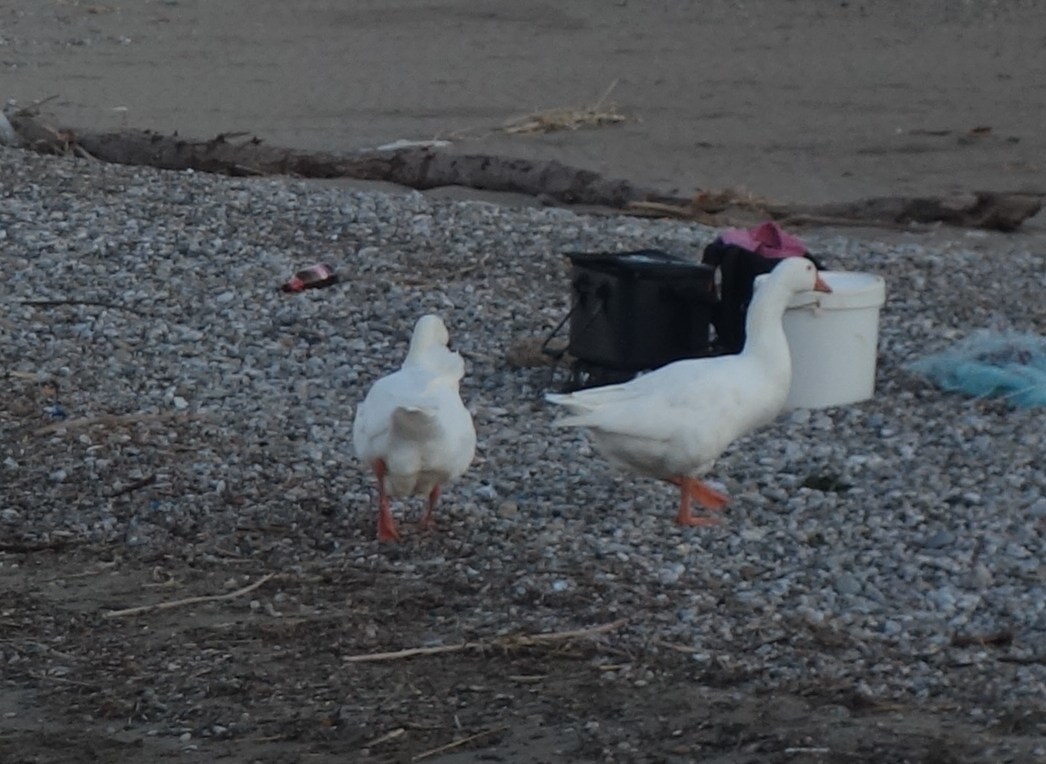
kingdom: Animalia
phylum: Chordata
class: Aves
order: Anseriformes
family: Anatidae
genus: Anser
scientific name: Anser anser
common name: Greylag goose
